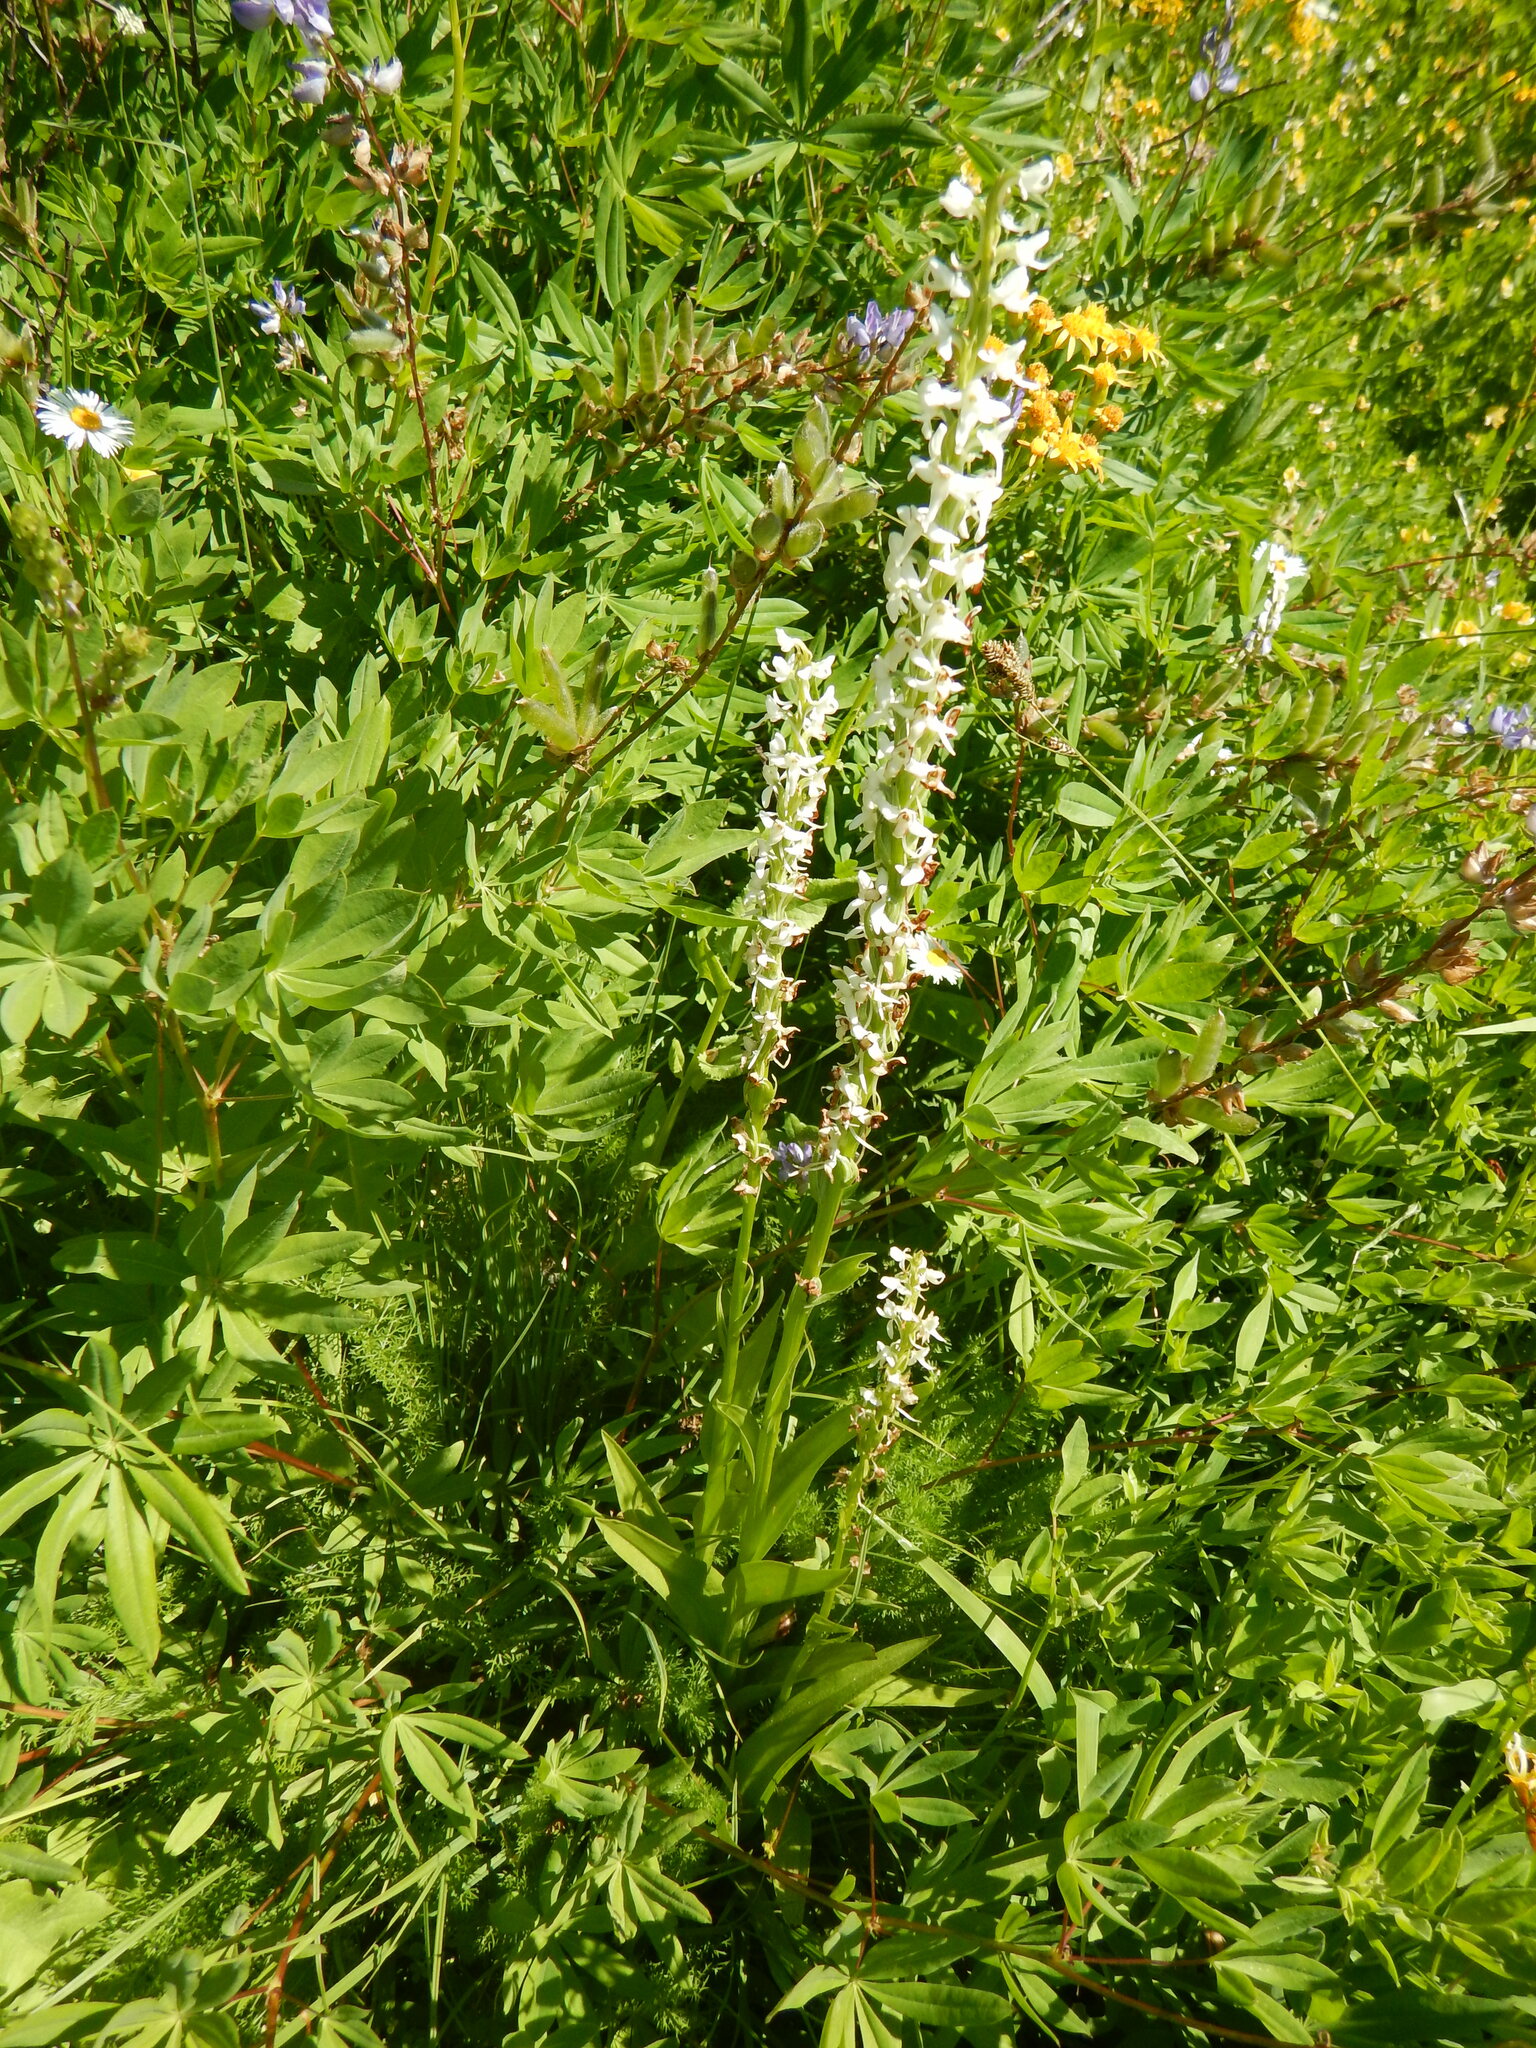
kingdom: Plantae
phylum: Tracheophyta
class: Liliopsida
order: Asparagales
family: Orchidaceae
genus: Platanthera
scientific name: Platanthera dilatata
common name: Bog candles
